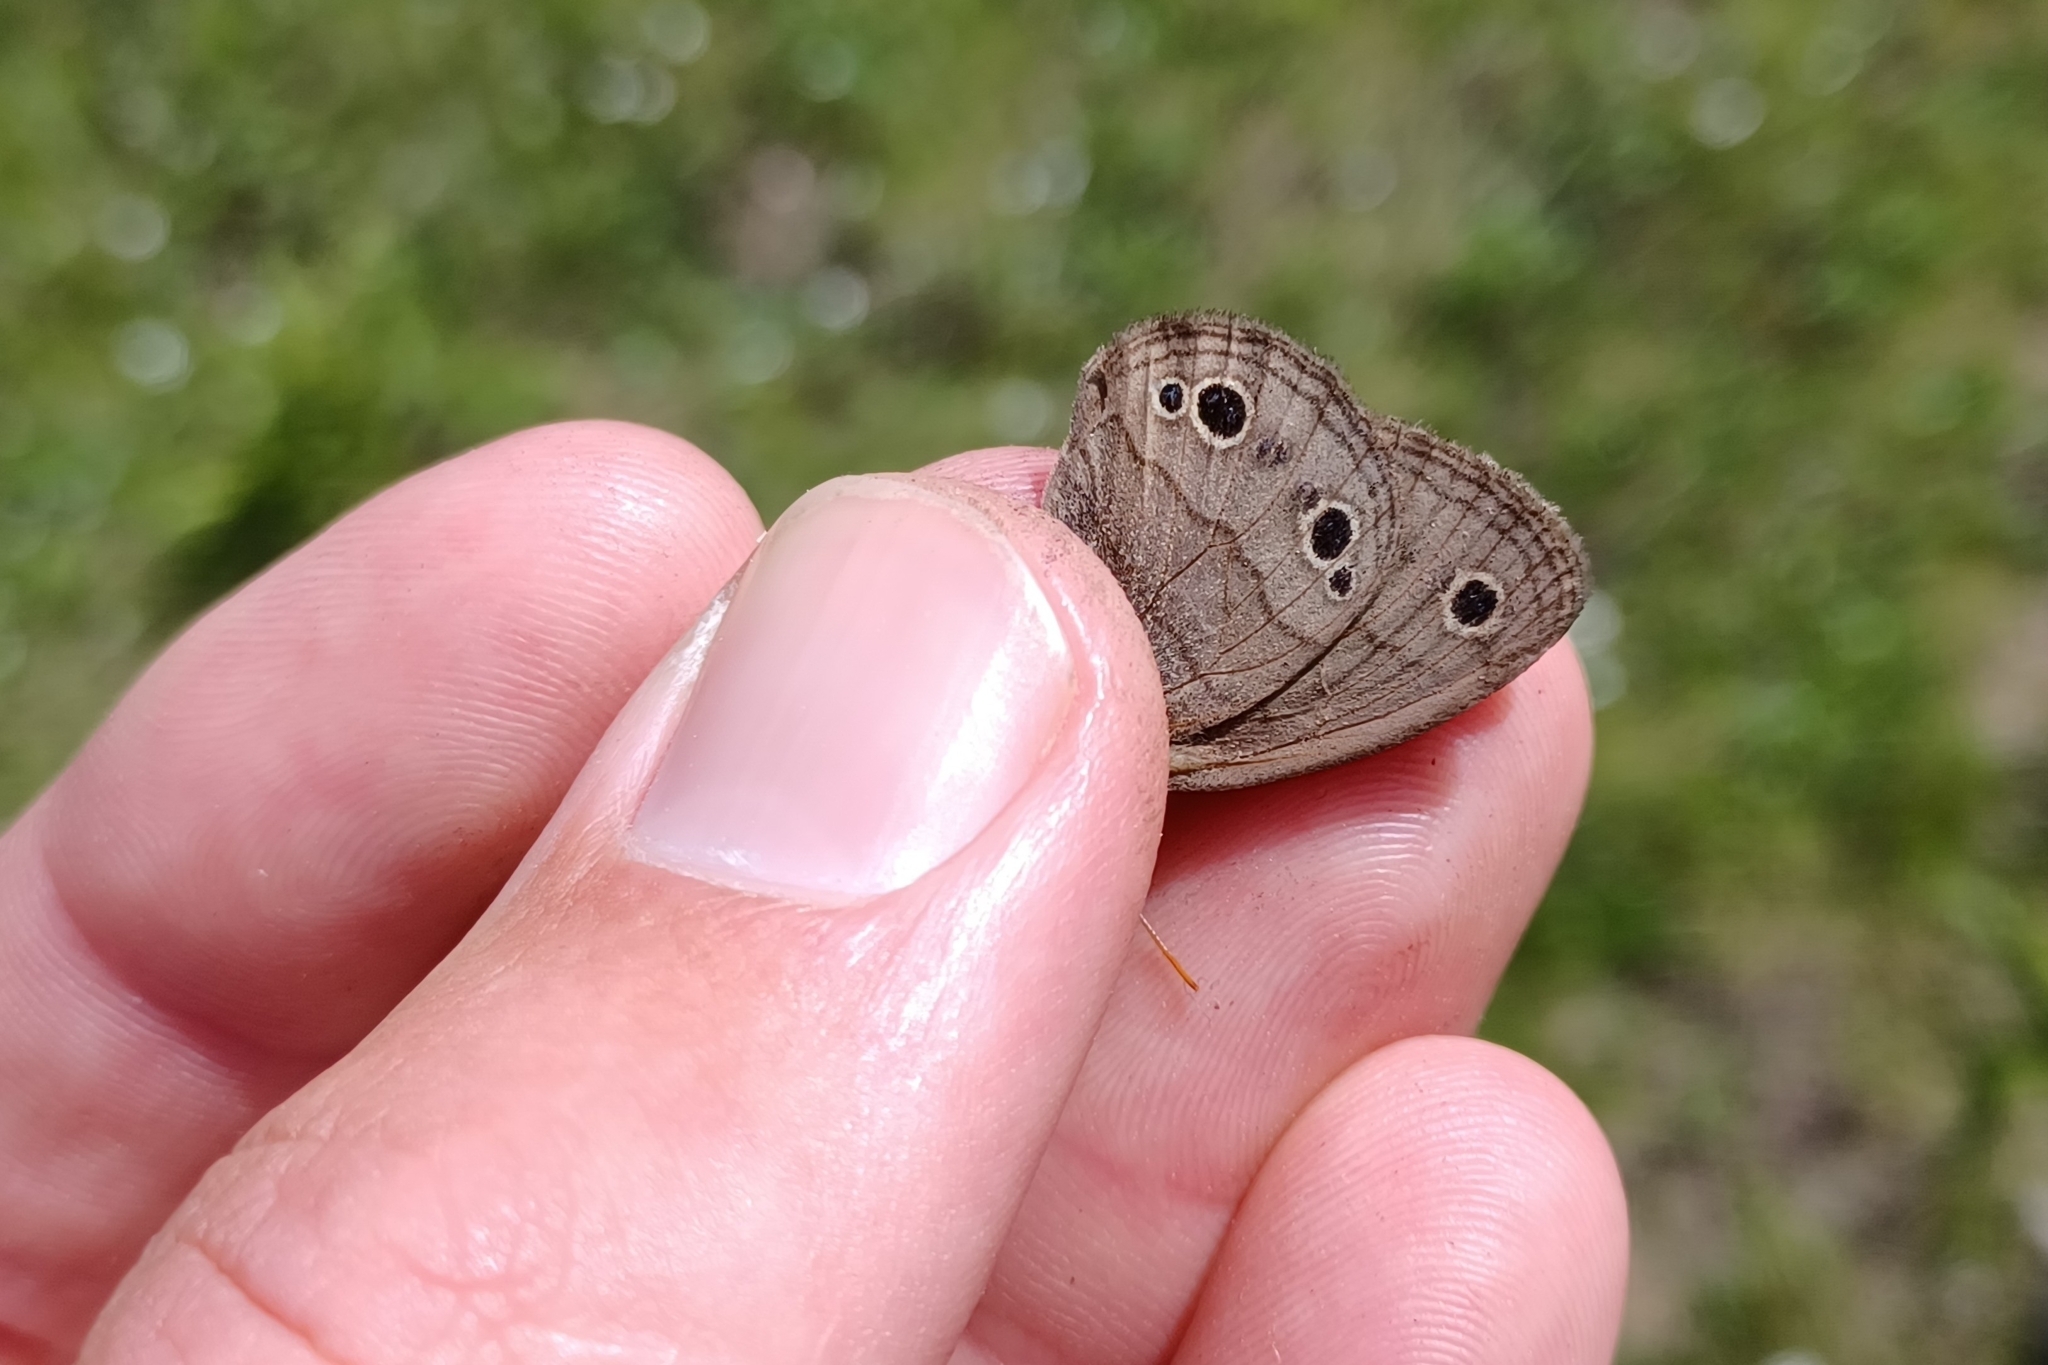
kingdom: Animalia
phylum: Arthropoda
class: Insecta
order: Lepidoptera
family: Nymphalidae
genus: Euptychia
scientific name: Euptychia cymela
